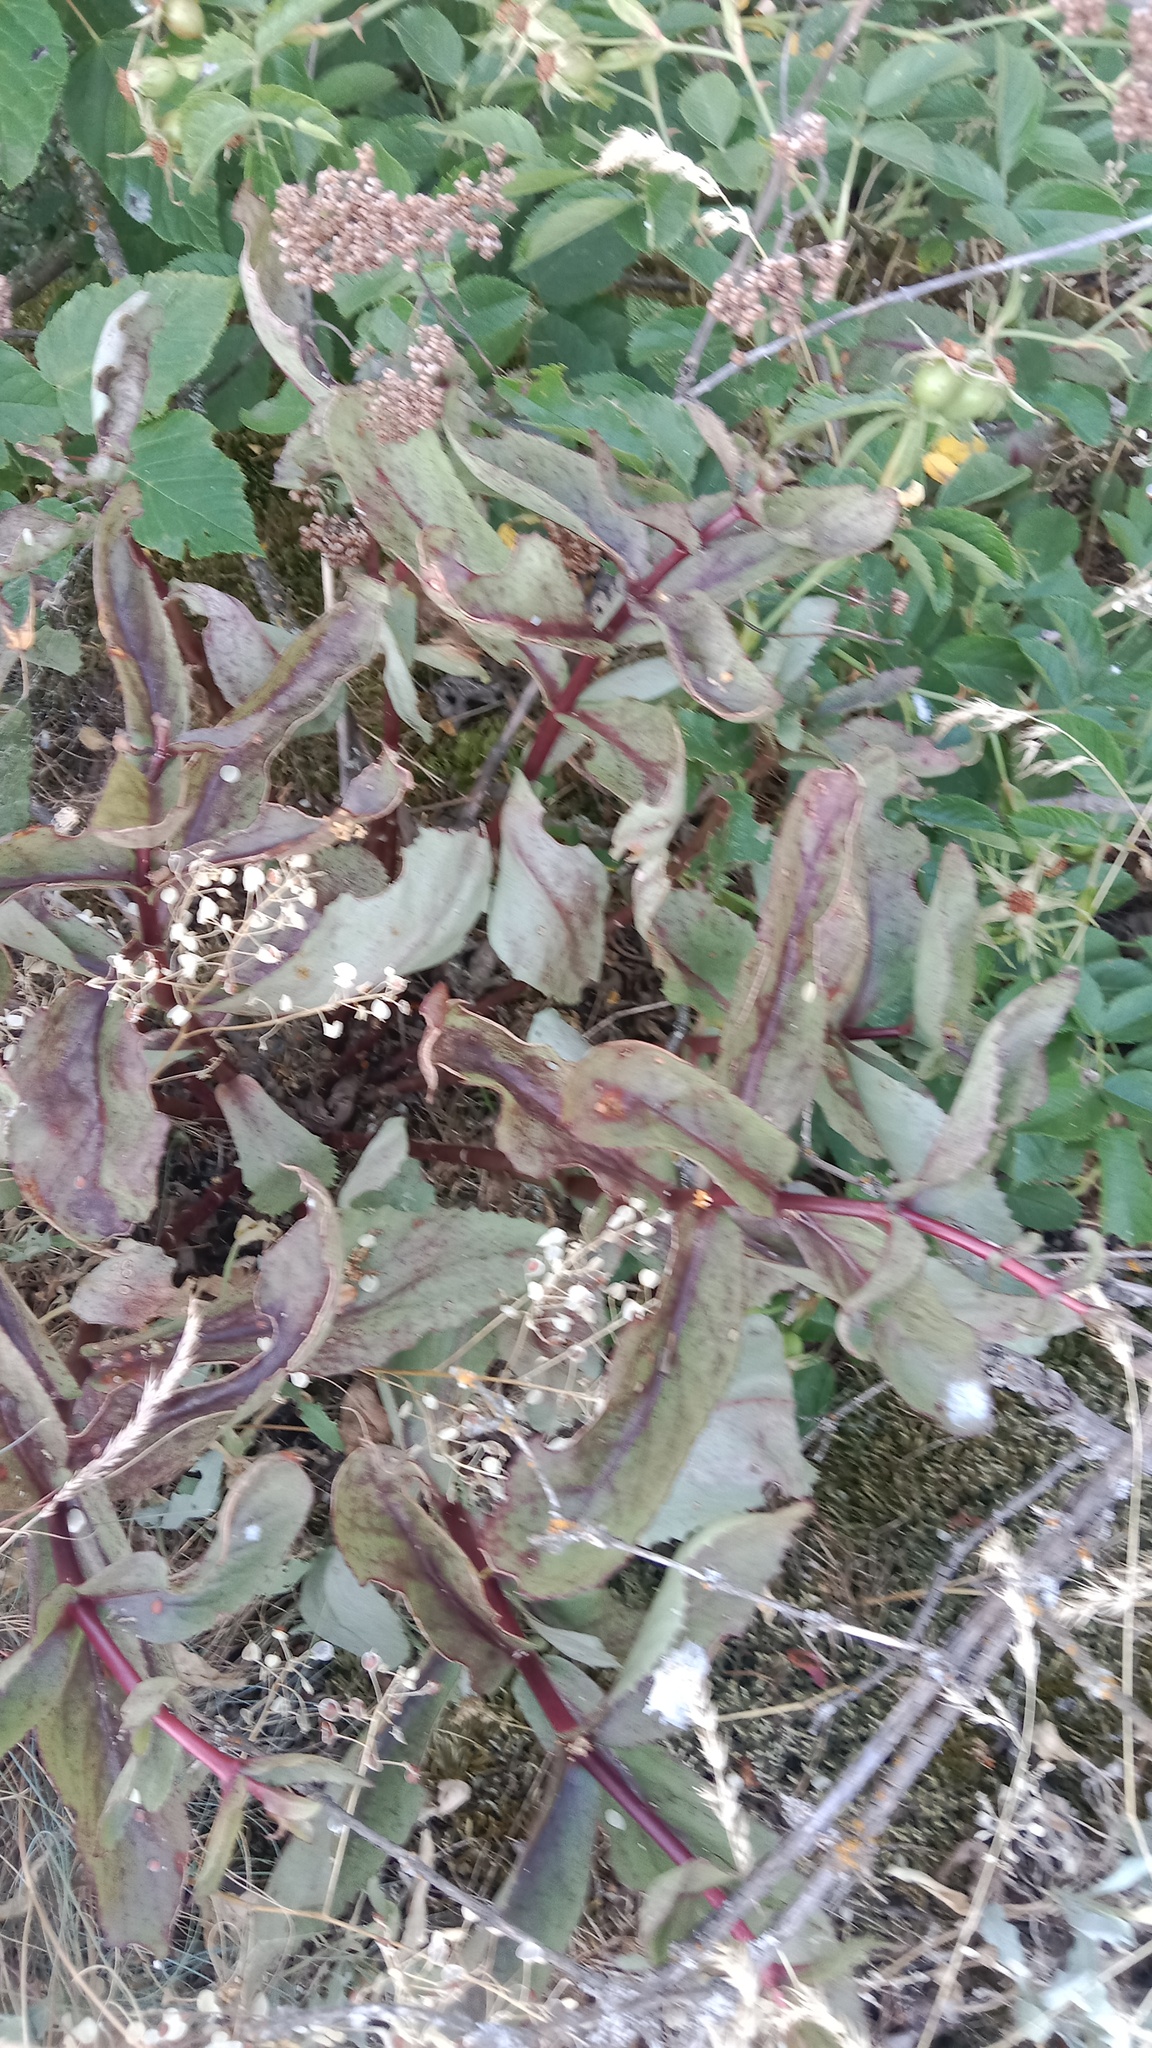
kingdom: Plantae
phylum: Tracheophyta
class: Magnoliopsida
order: Saxifragales
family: Crassulaceae
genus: Hylotelephium
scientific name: Hylotelephium maximum
